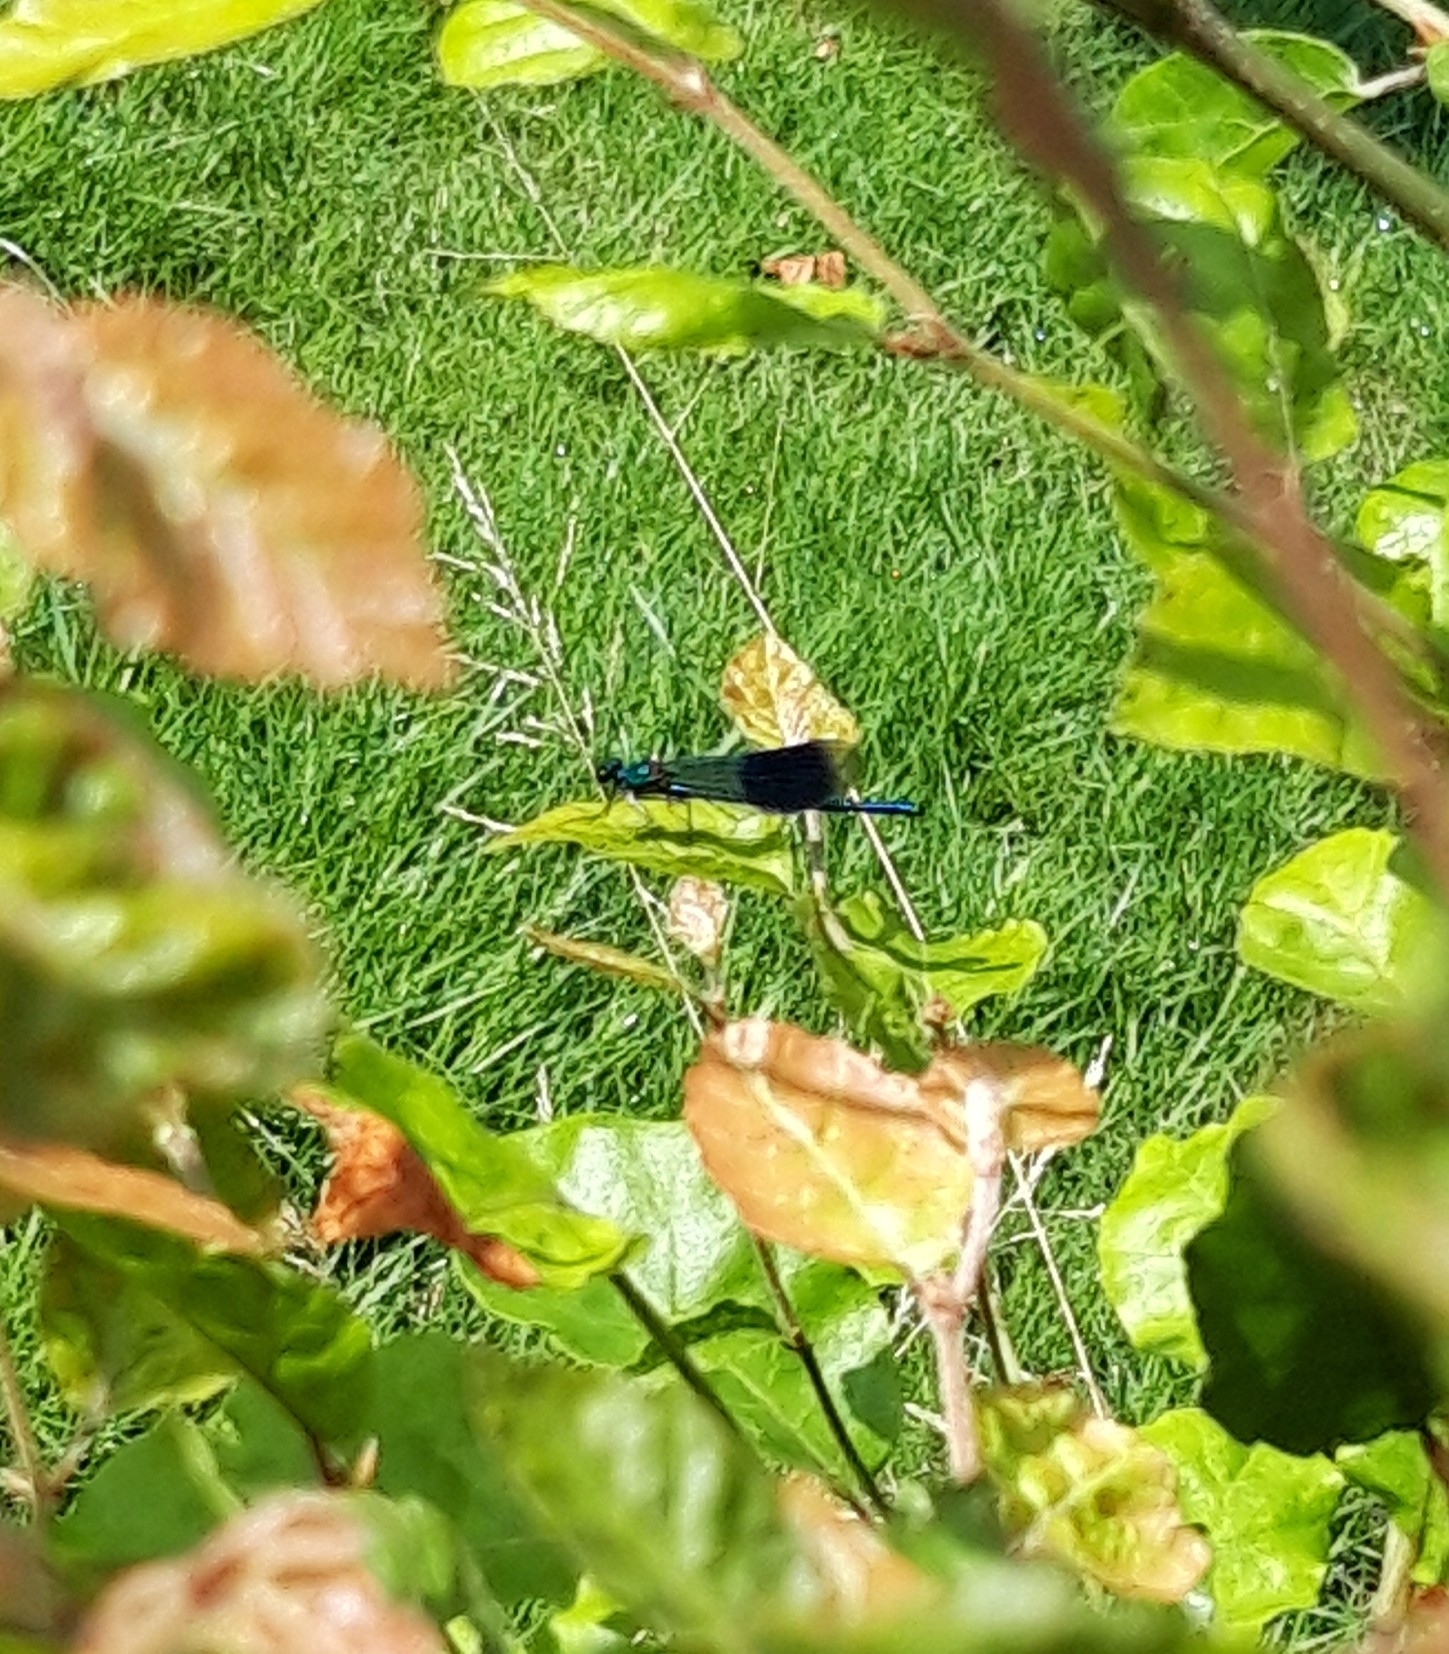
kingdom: Animalia
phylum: Arthropoda
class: Insecta
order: Odonata
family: Calopterygidae
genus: Calopteryx
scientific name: Calopteryx splendens
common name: Banded demoiselle
